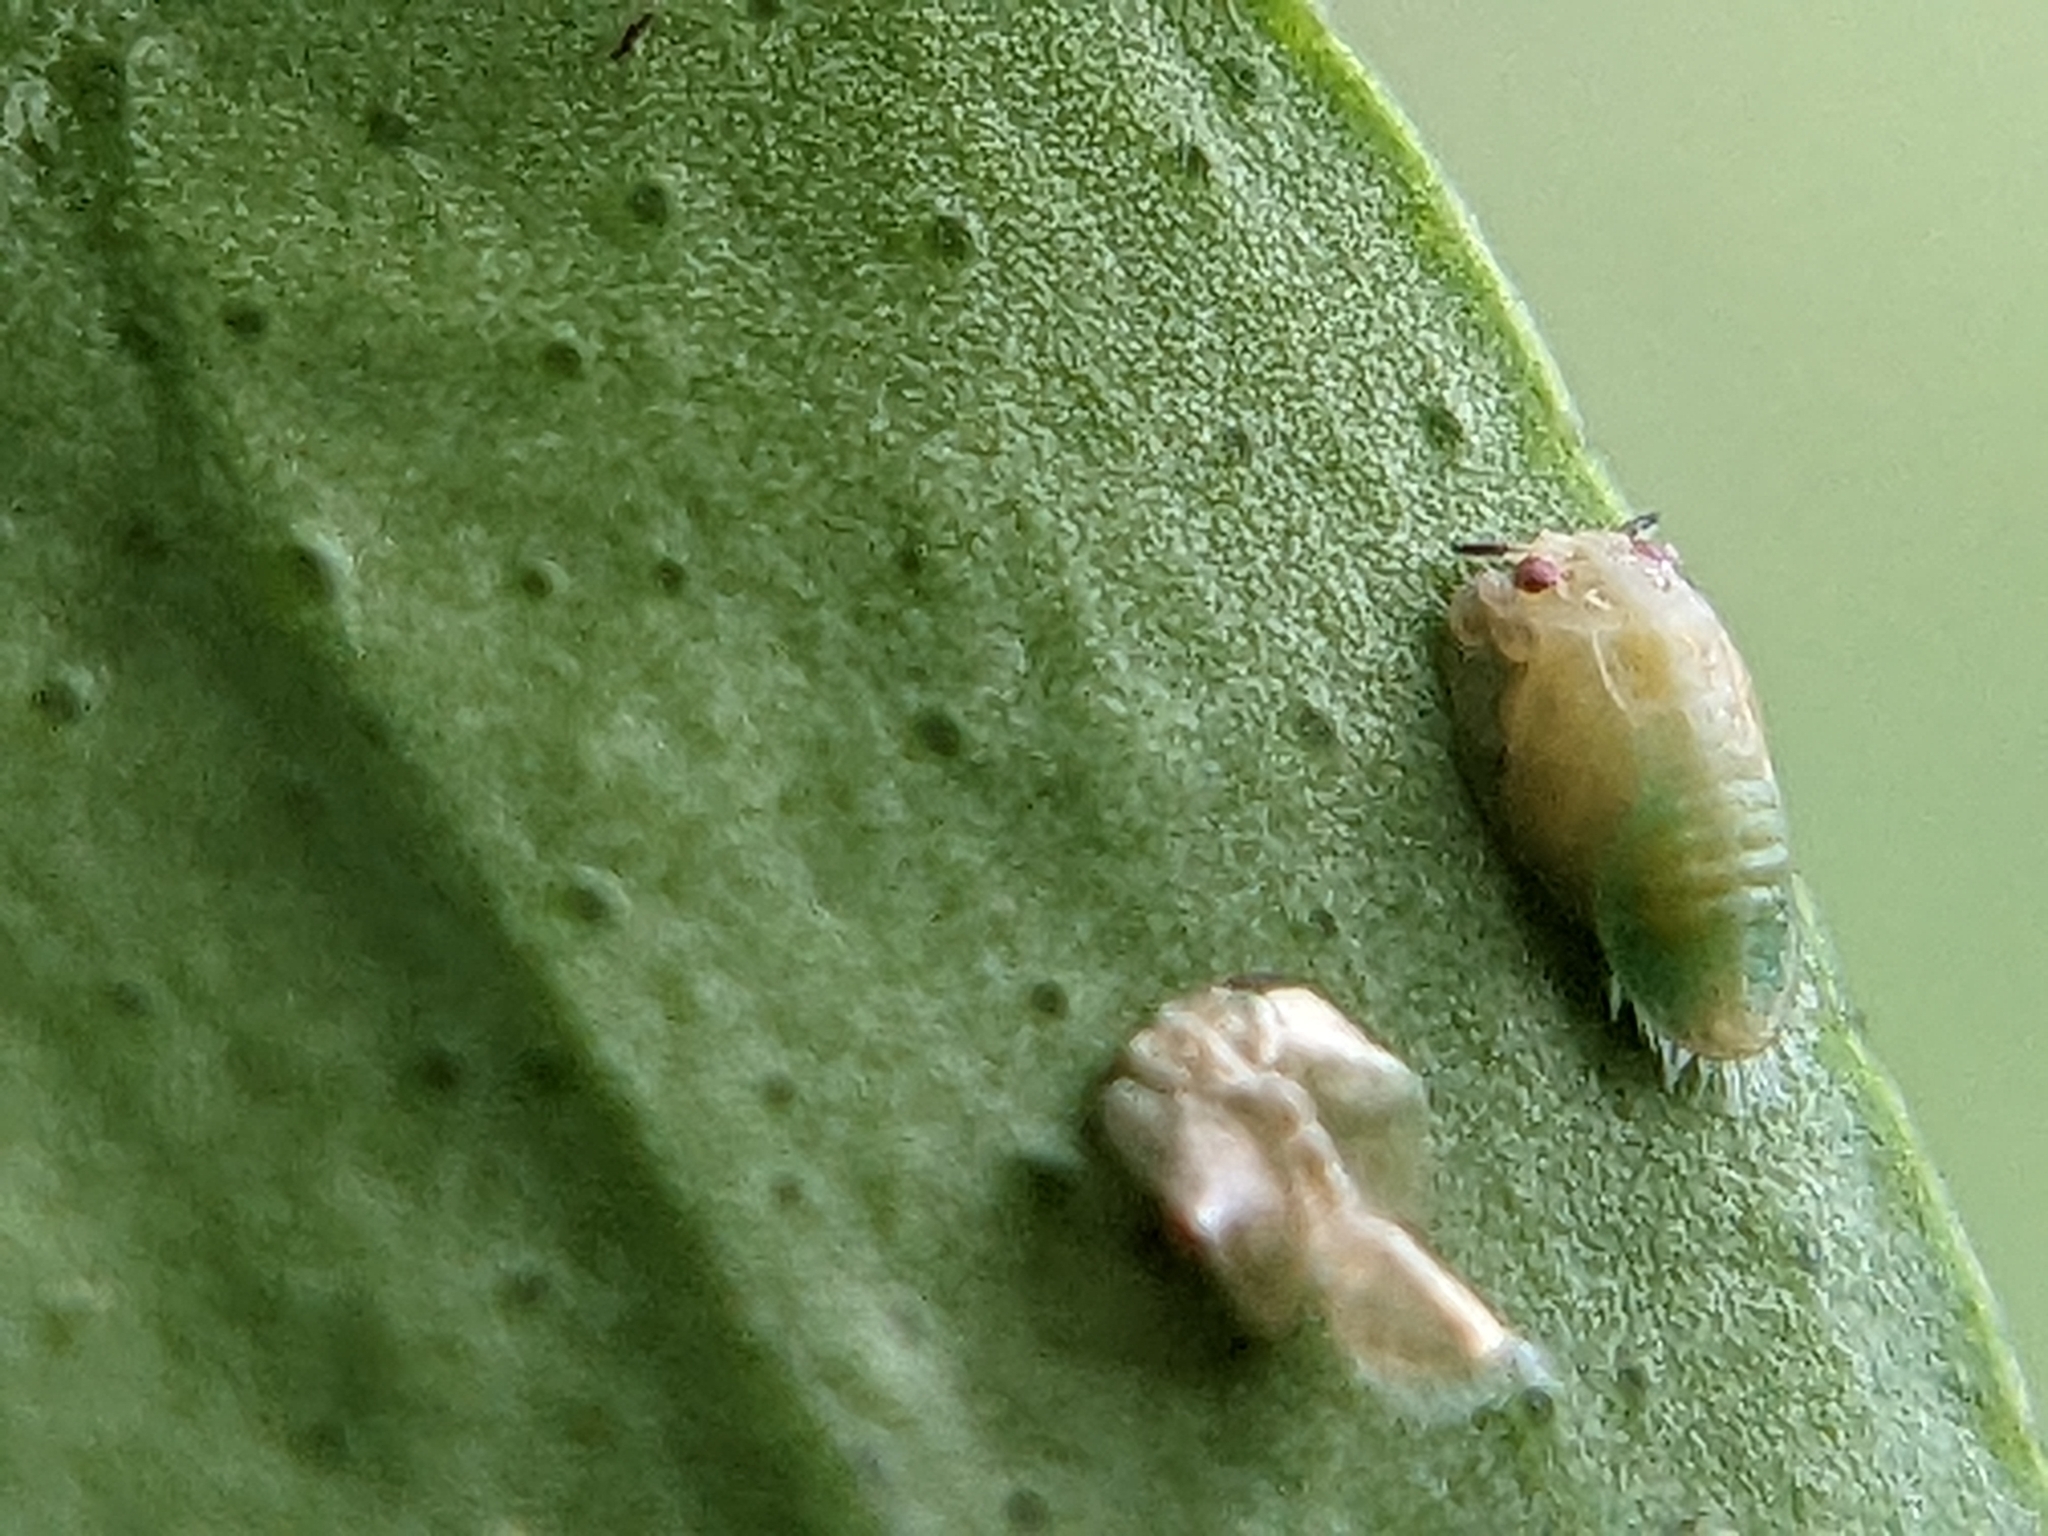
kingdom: Animalia
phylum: Arthropoda
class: Insecta
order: Hemiptera
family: Liviidae
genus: Diaphorina
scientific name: Diaphorina citri
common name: Asian citrus psyllid
